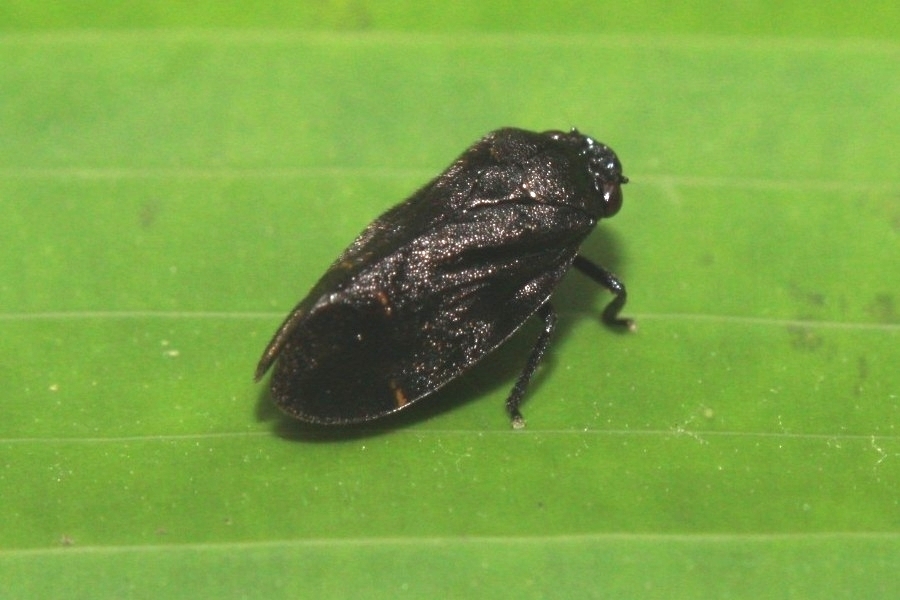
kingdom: Animalia
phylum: Arthropoda
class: Insecta
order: Hemiptera
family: Cercopidae
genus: Zulia
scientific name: Zulia pubescens
